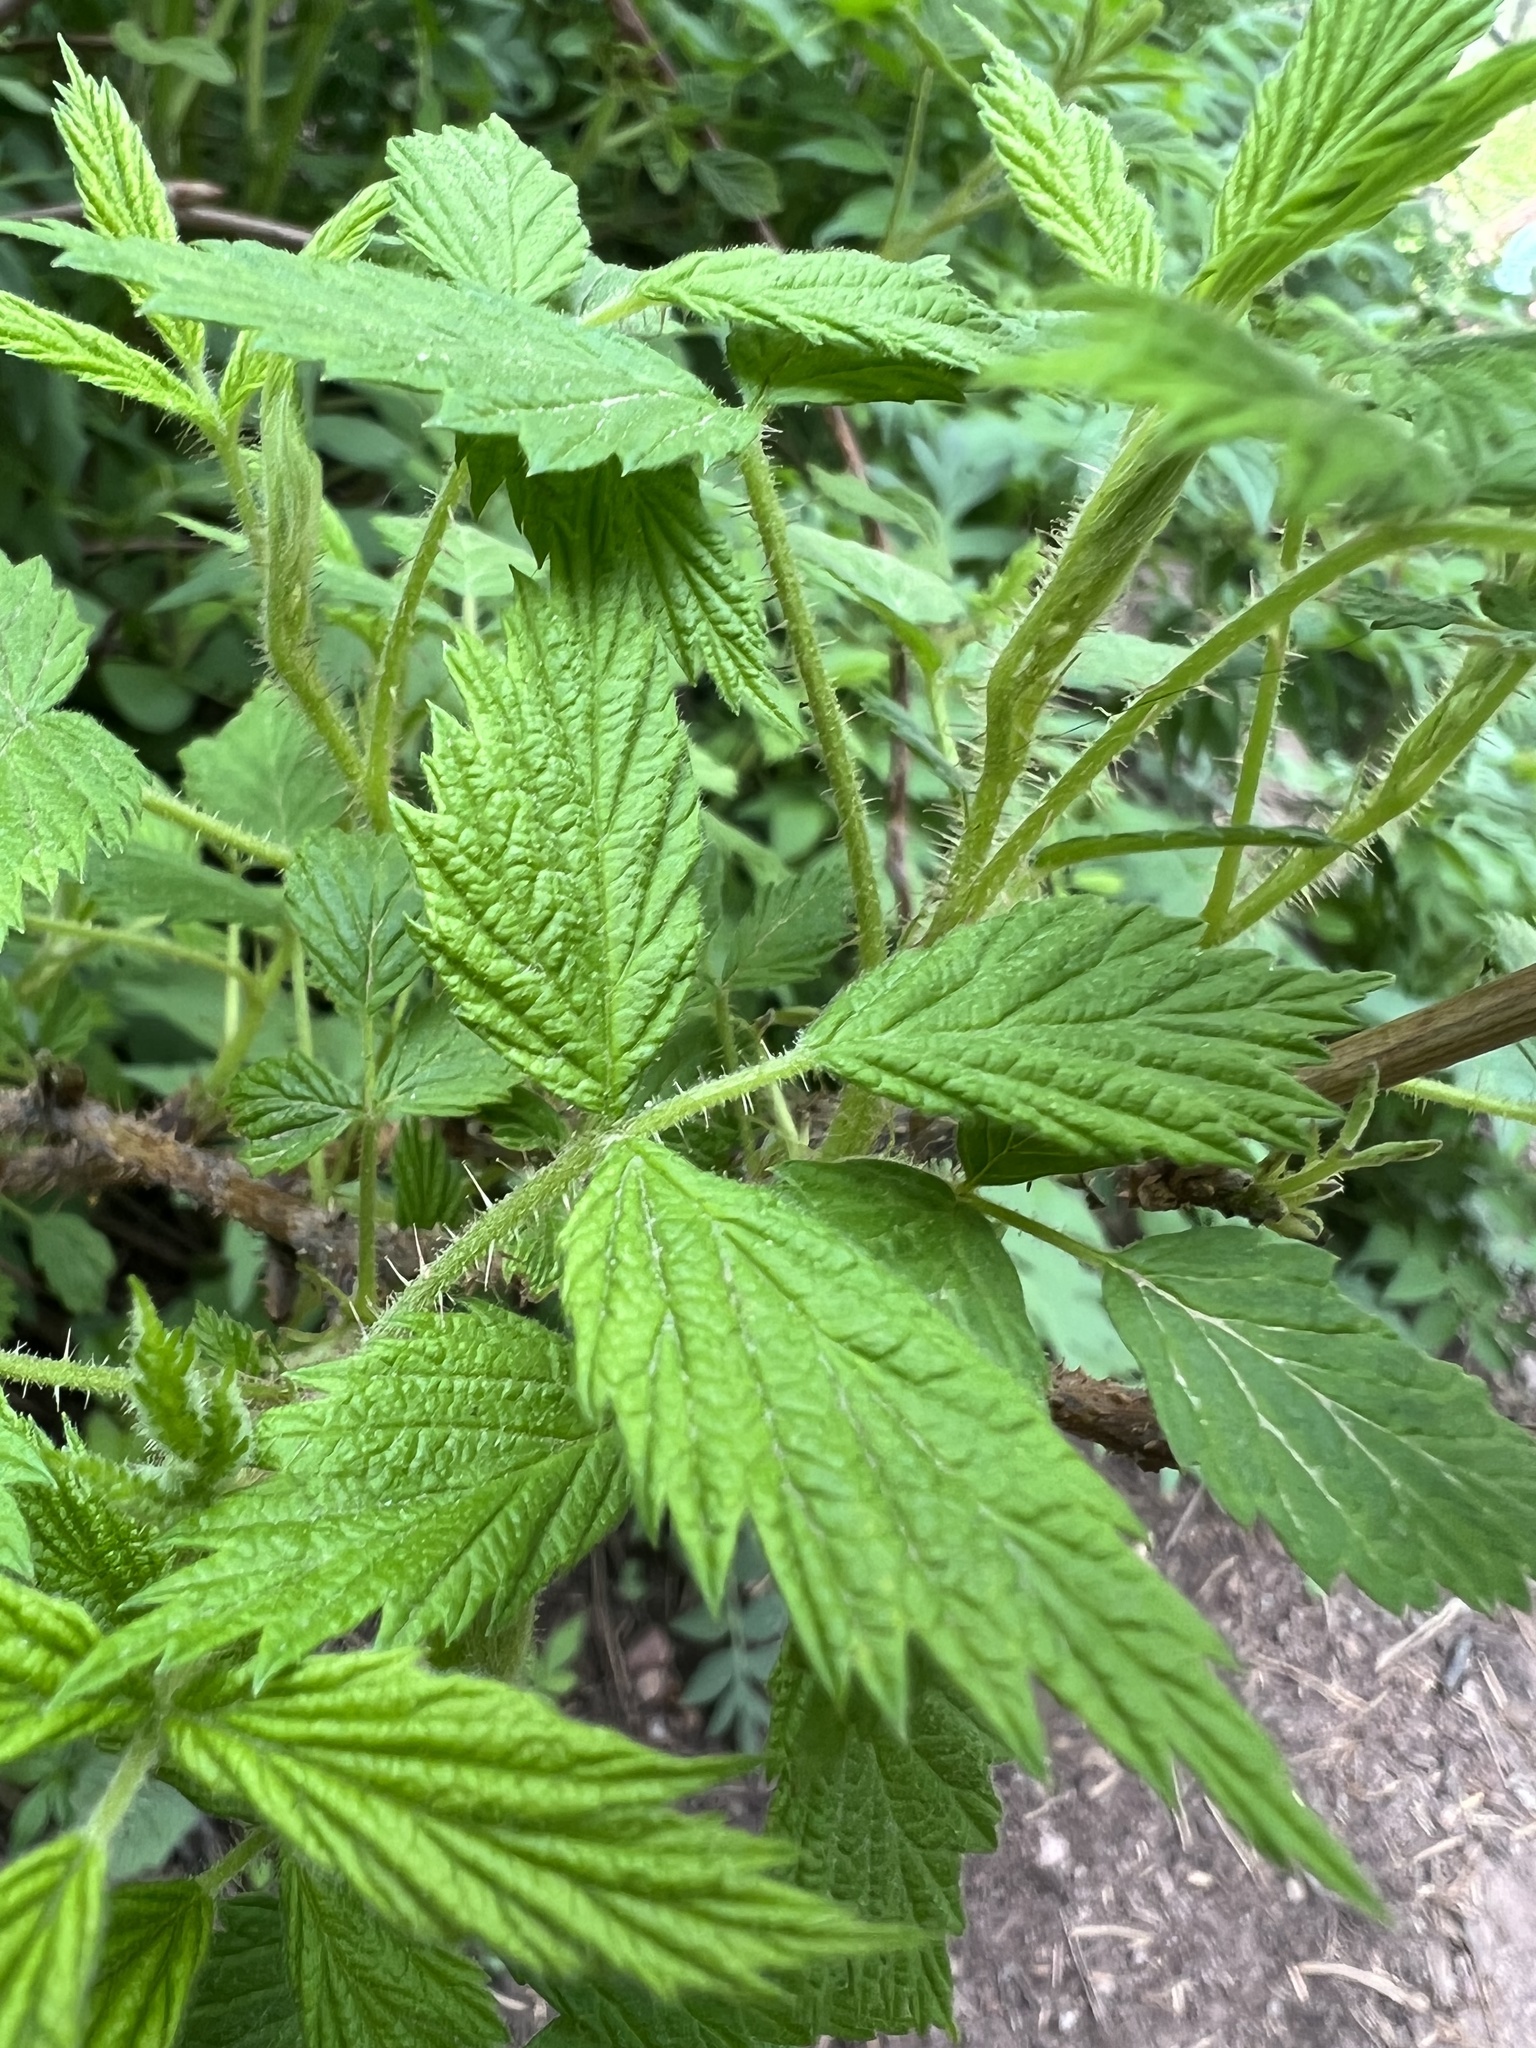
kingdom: Plantae
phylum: Tracheophyta
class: Magnoliopsida
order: Rosales
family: Rosaceae
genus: Rubus
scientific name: Rubus idaeus
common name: Raspberry
